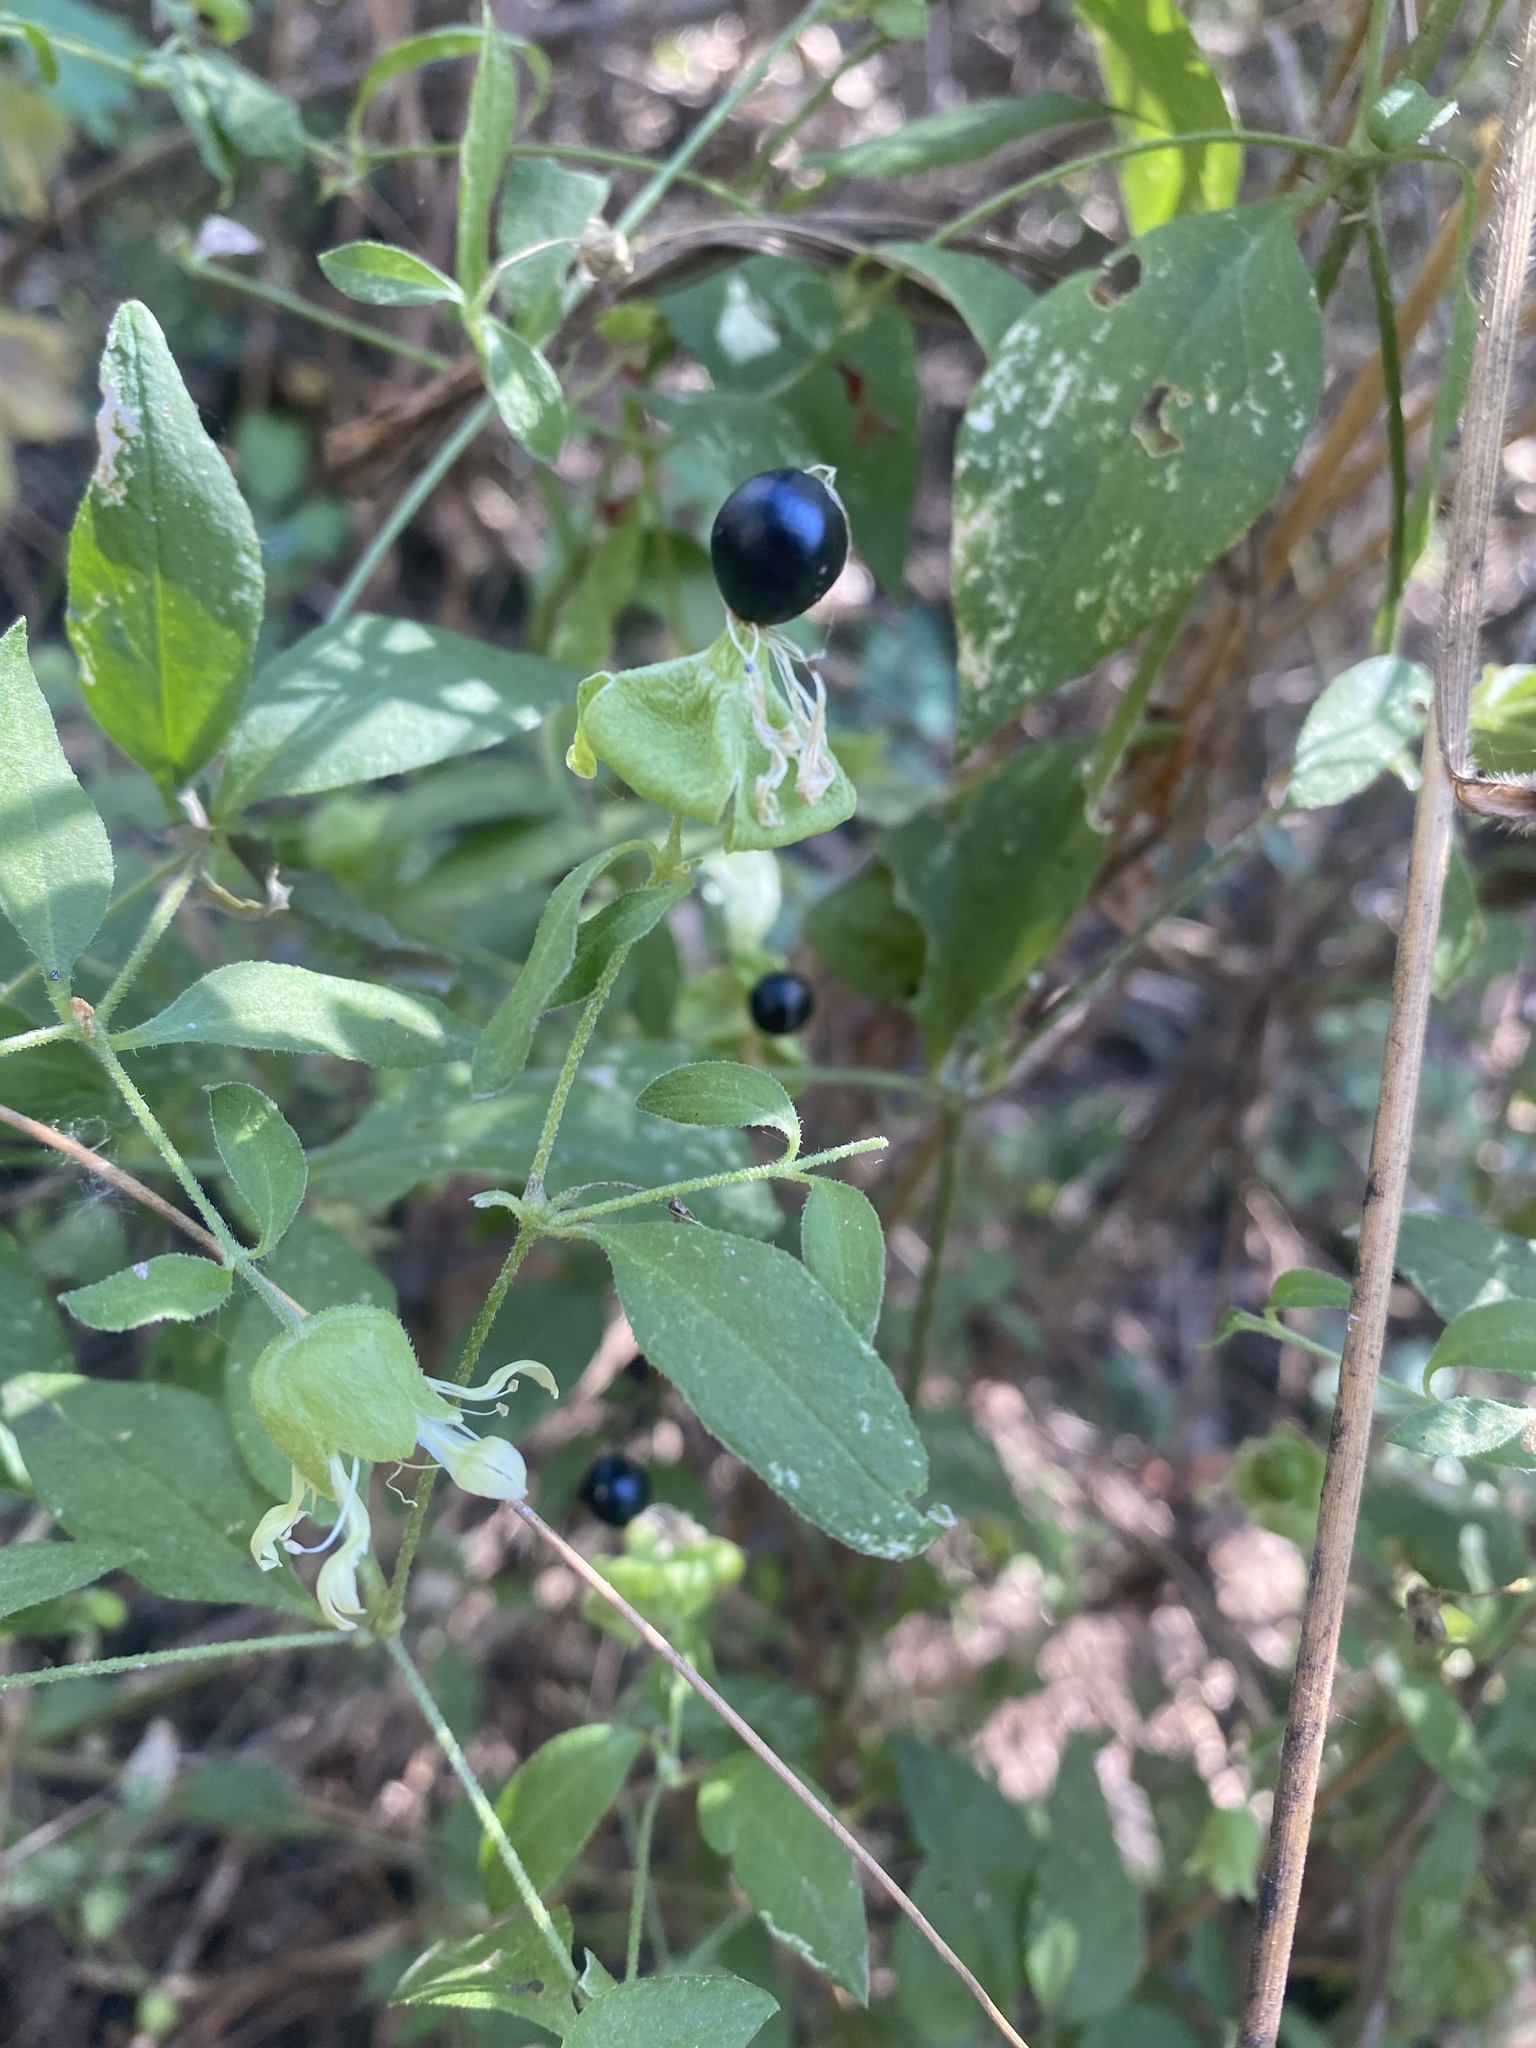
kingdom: Plantae
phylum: Tracheophyta
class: Magnoliopsida
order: Caryophyllales
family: Caryophyllaceae
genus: Silene
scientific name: Silene baccifera
